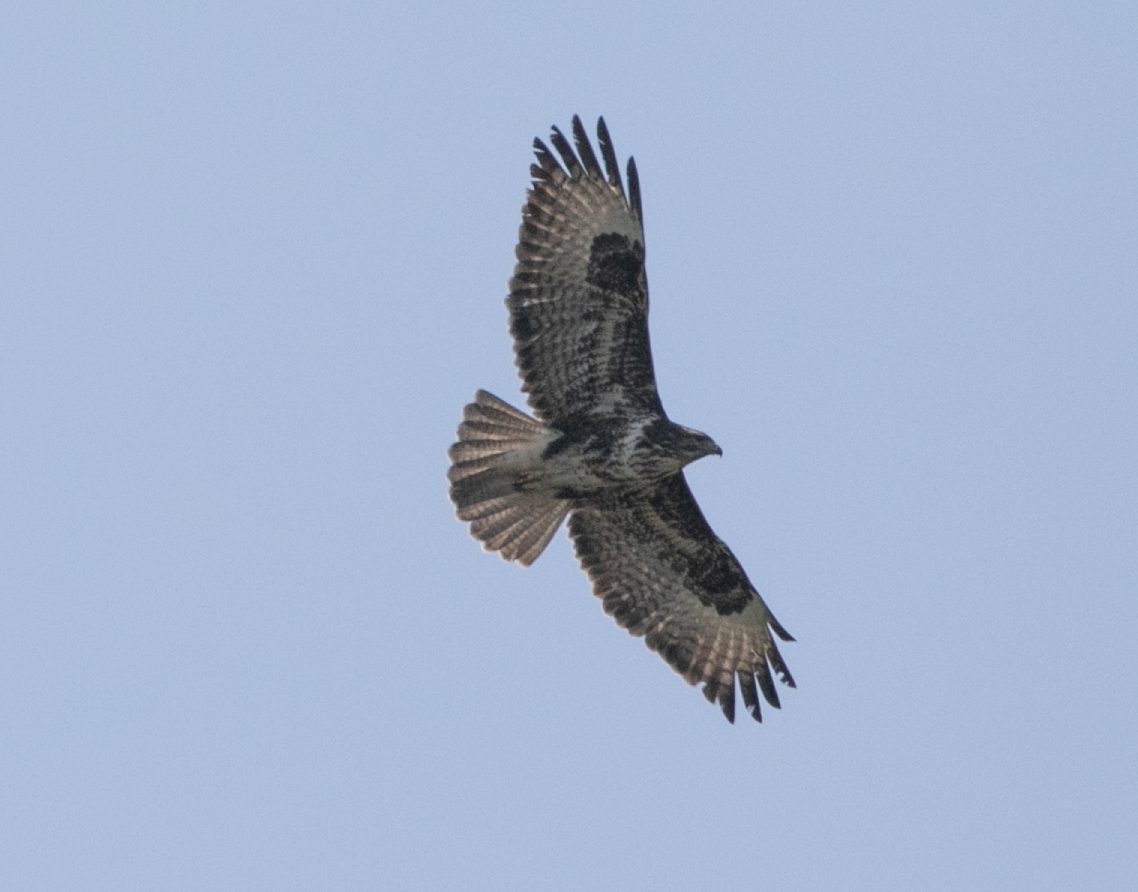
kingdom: Animalia
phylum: Chordata
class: Aves
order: Accipitriformes
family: Accipitridae
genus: Buteo
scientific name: Buteo buteo
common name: Common buzzard
